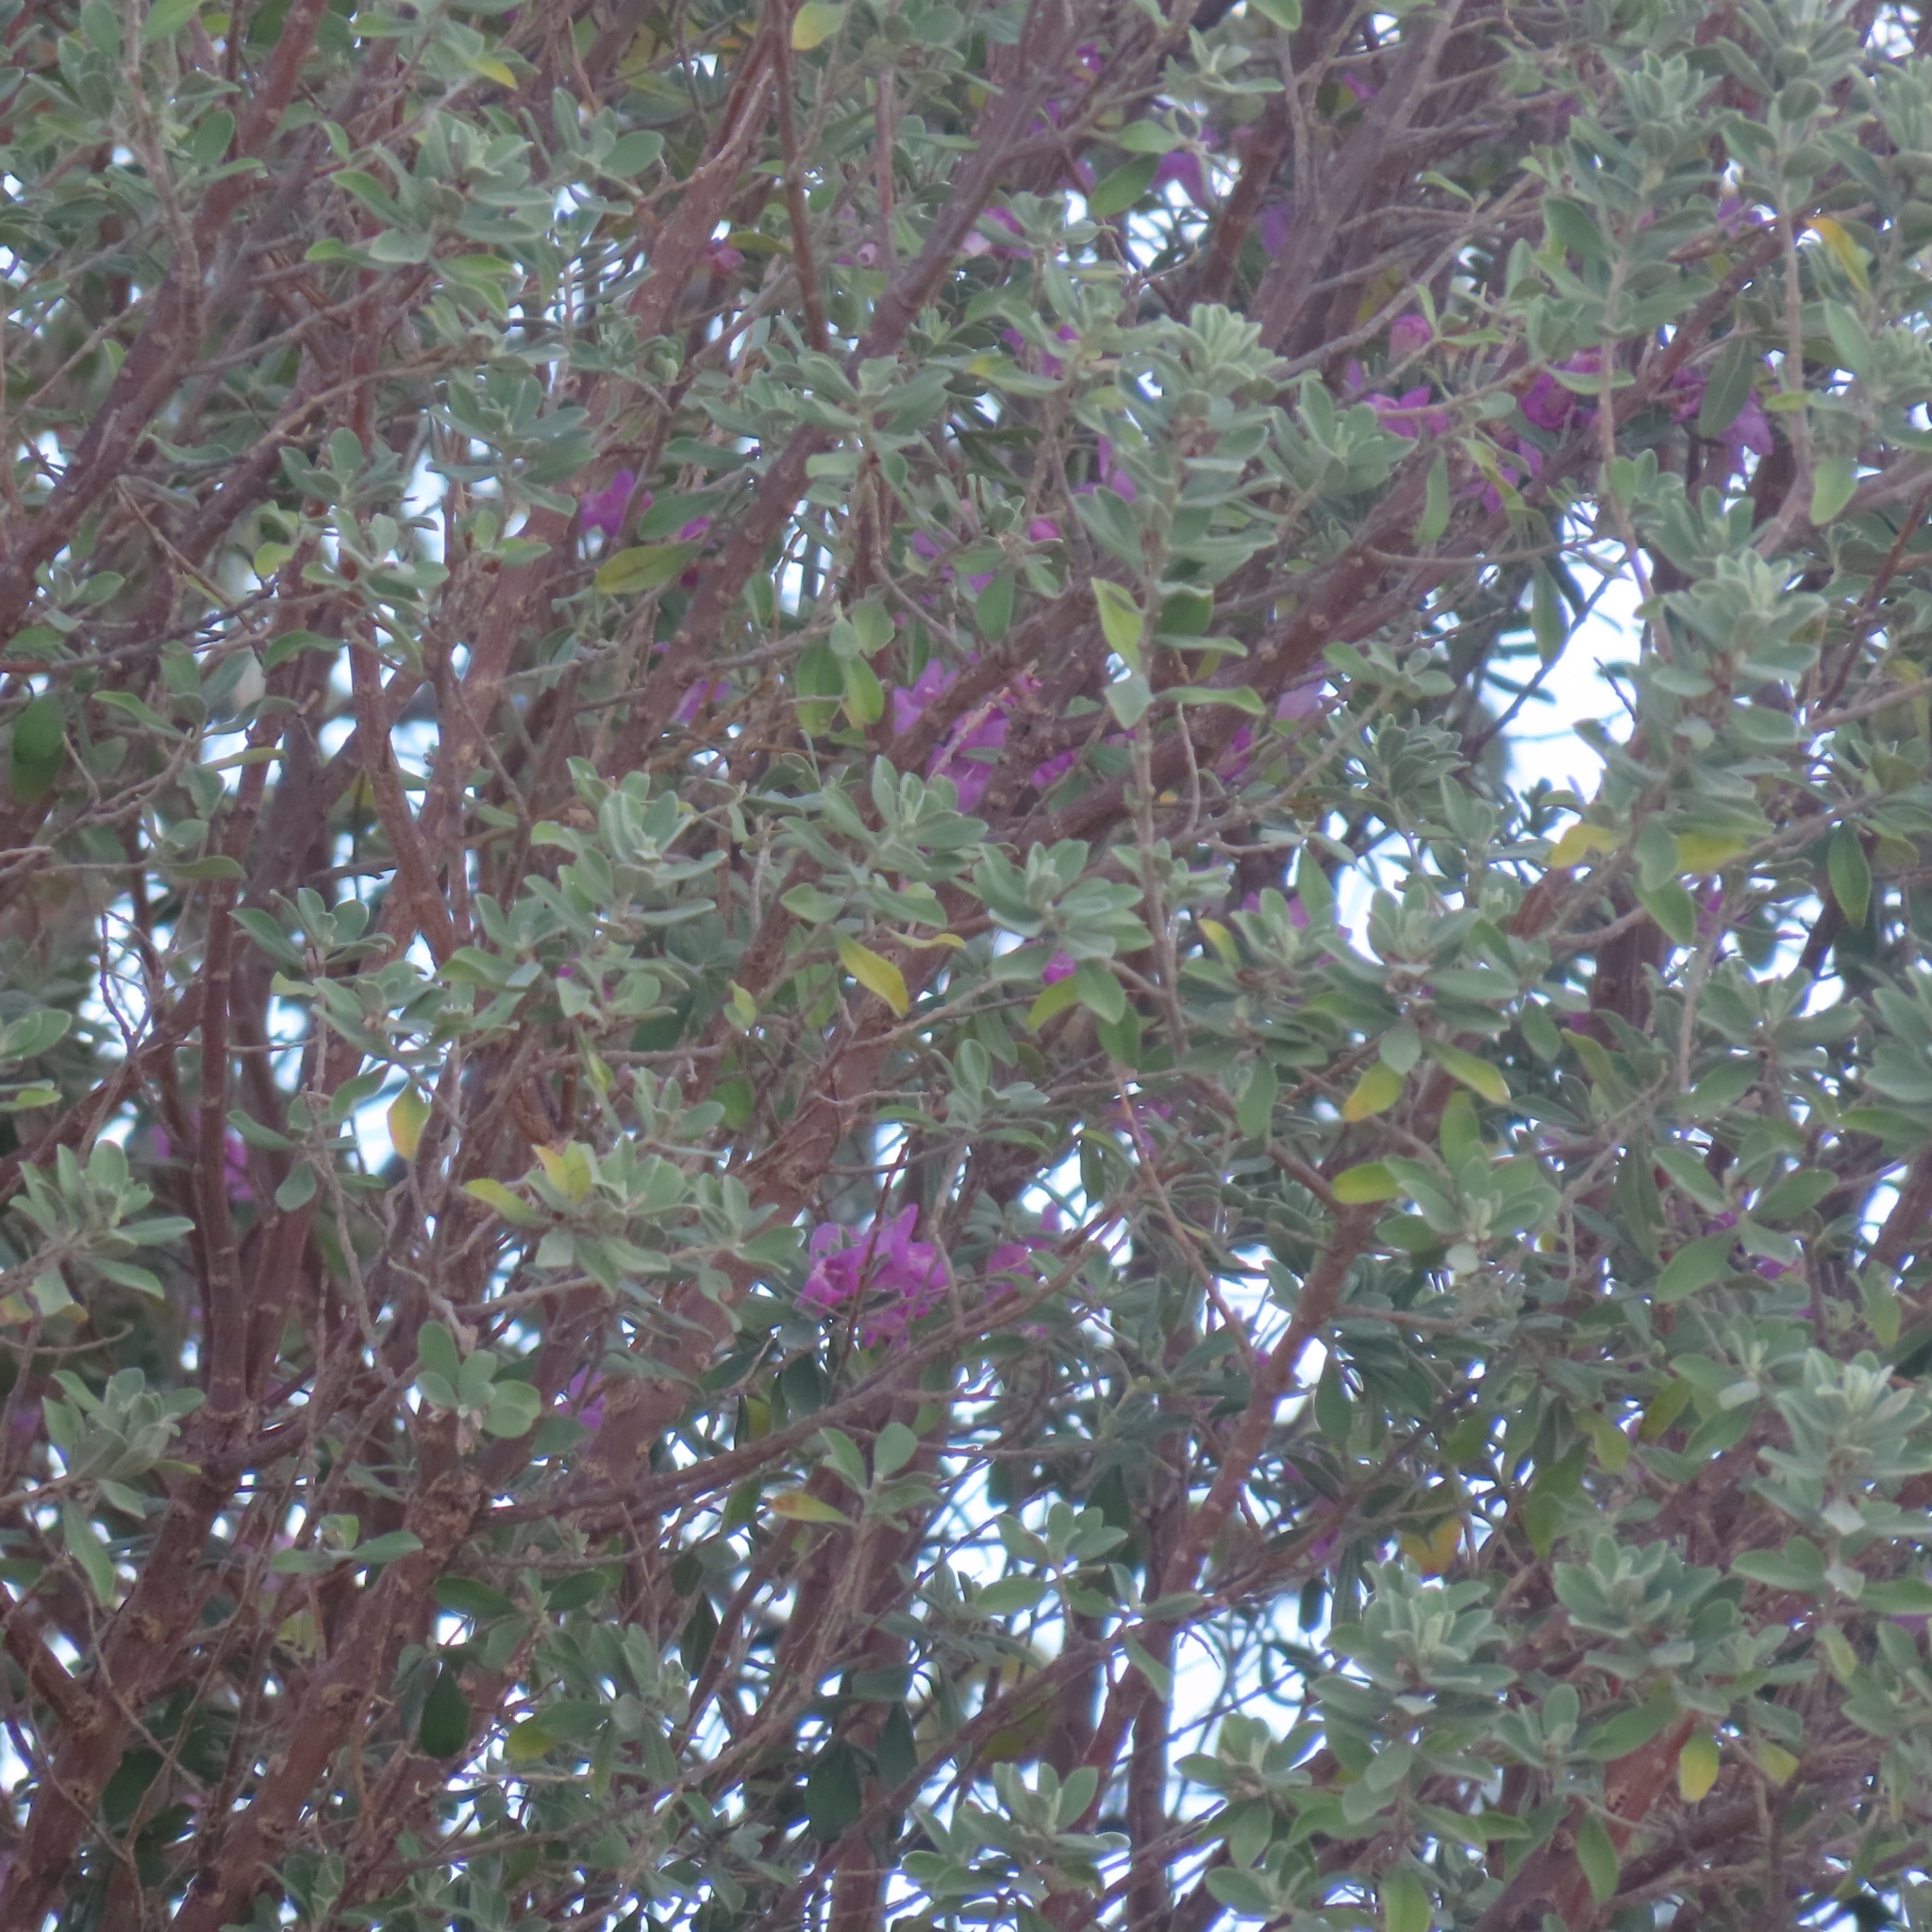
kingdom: Plantae
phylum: Tracheophyta
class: Magnoliopsida
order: Lamiales
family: Scrophulariaceae
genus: Leucophyllum
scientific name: Leucophyllum frutescens
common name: Texas silverleaf
